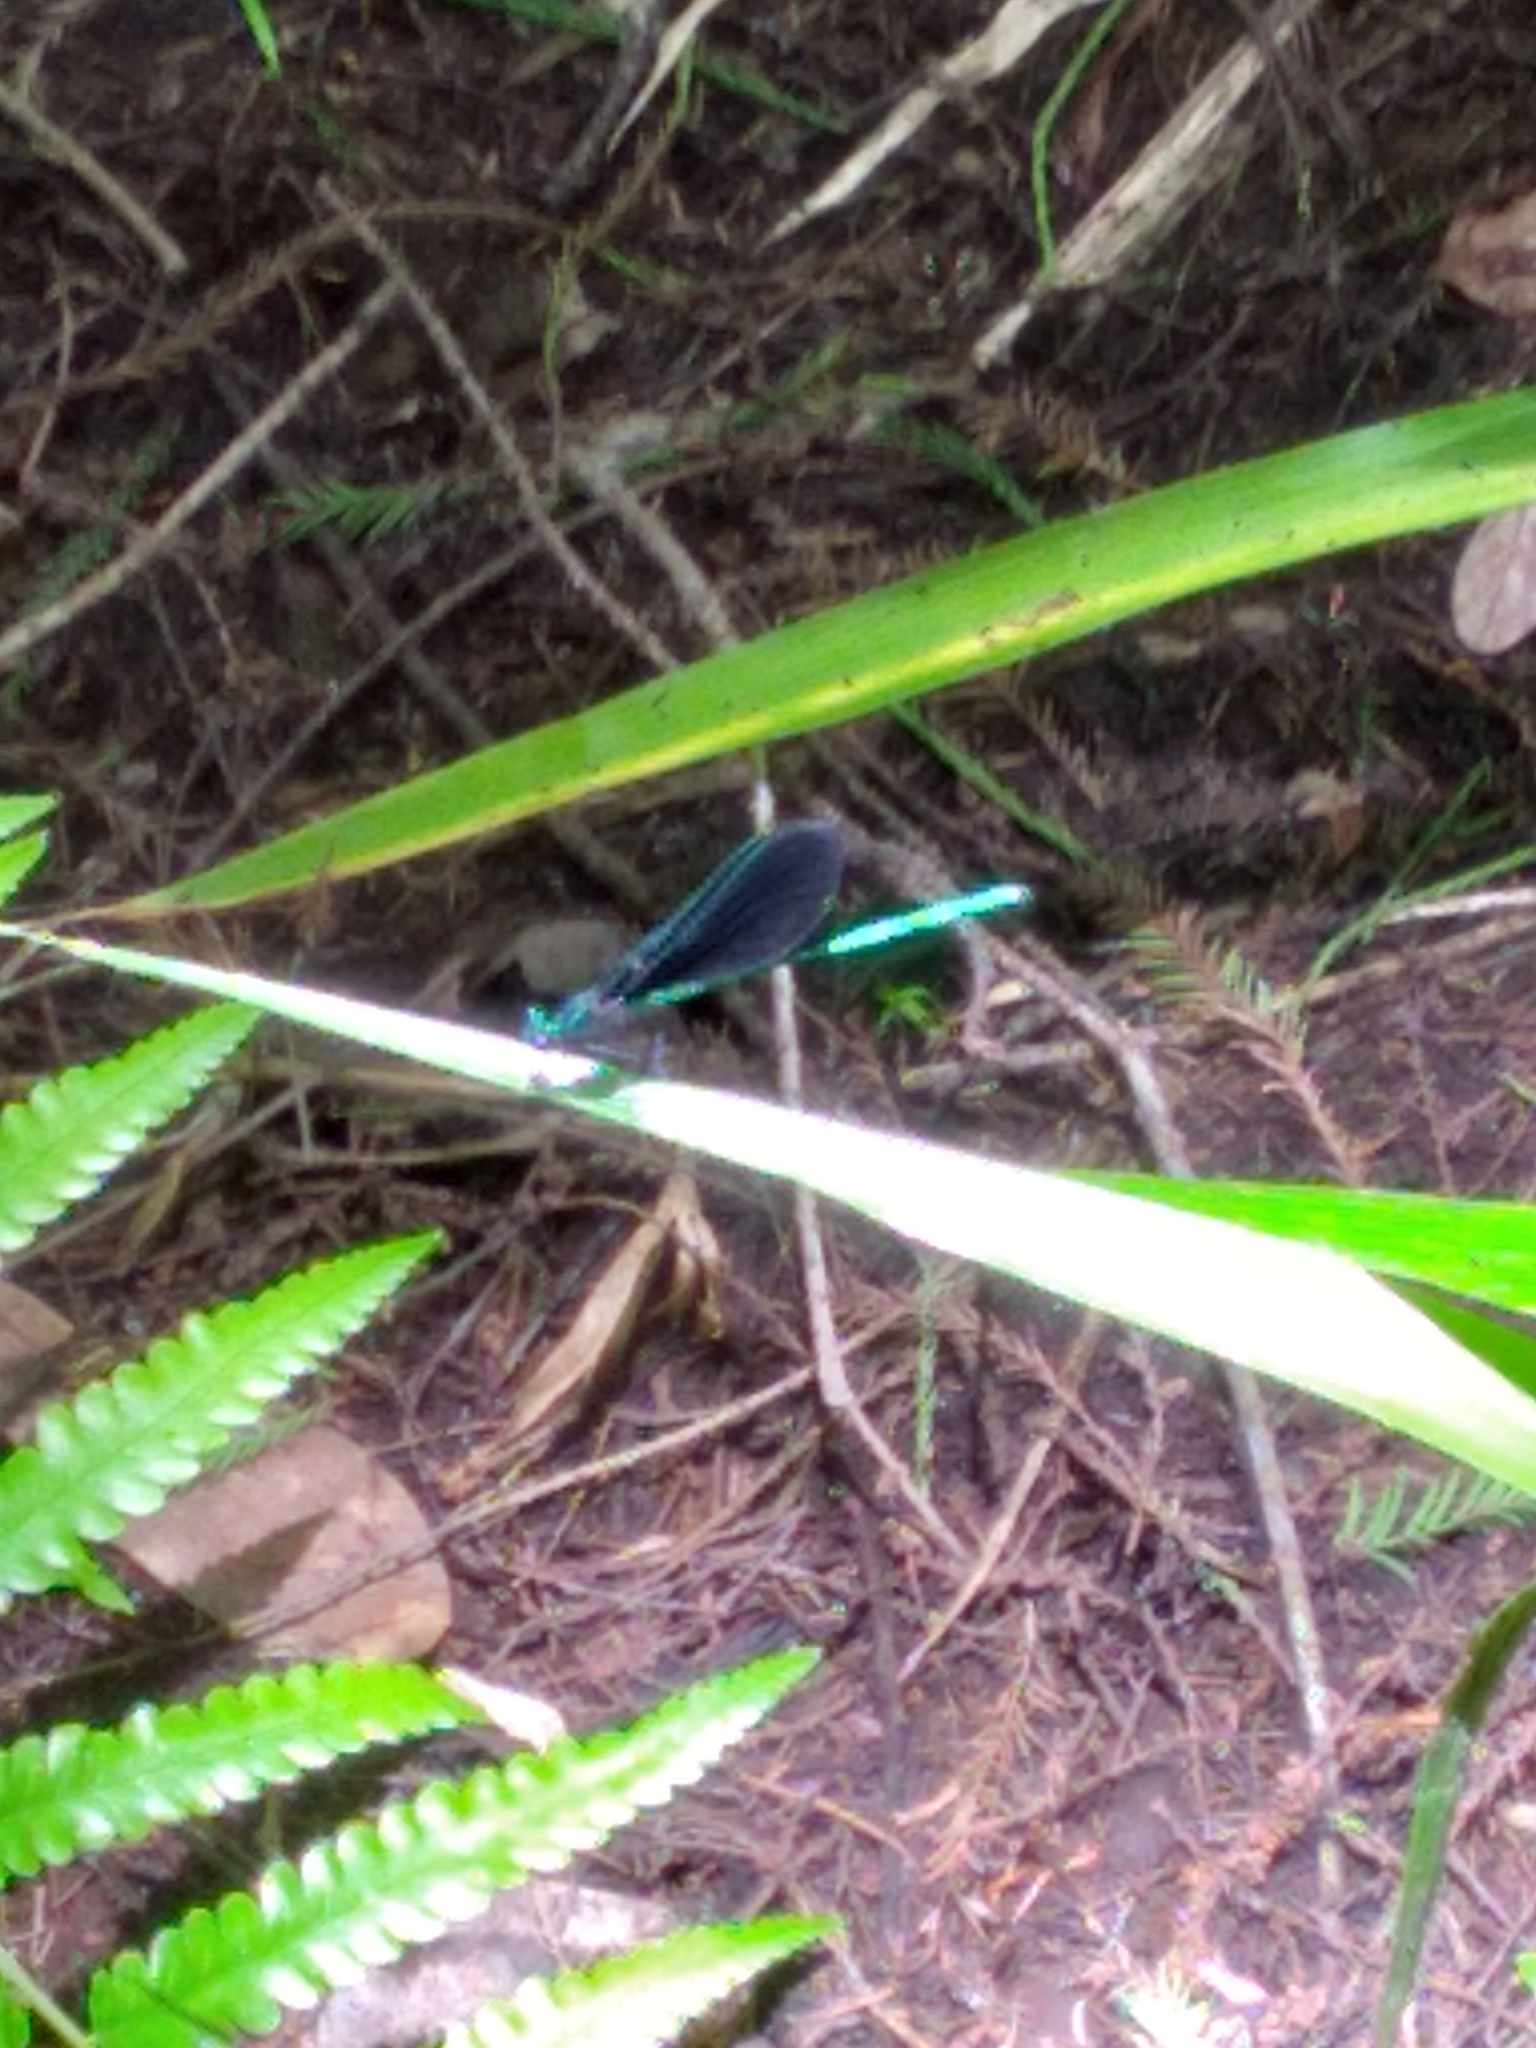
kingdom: Animalia
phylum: Arthropoda
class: Insecta
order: Odonata
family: Calopterygidae
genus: Calopteryx
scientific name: Calopteryx maculata
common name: Ebony jewelwing
